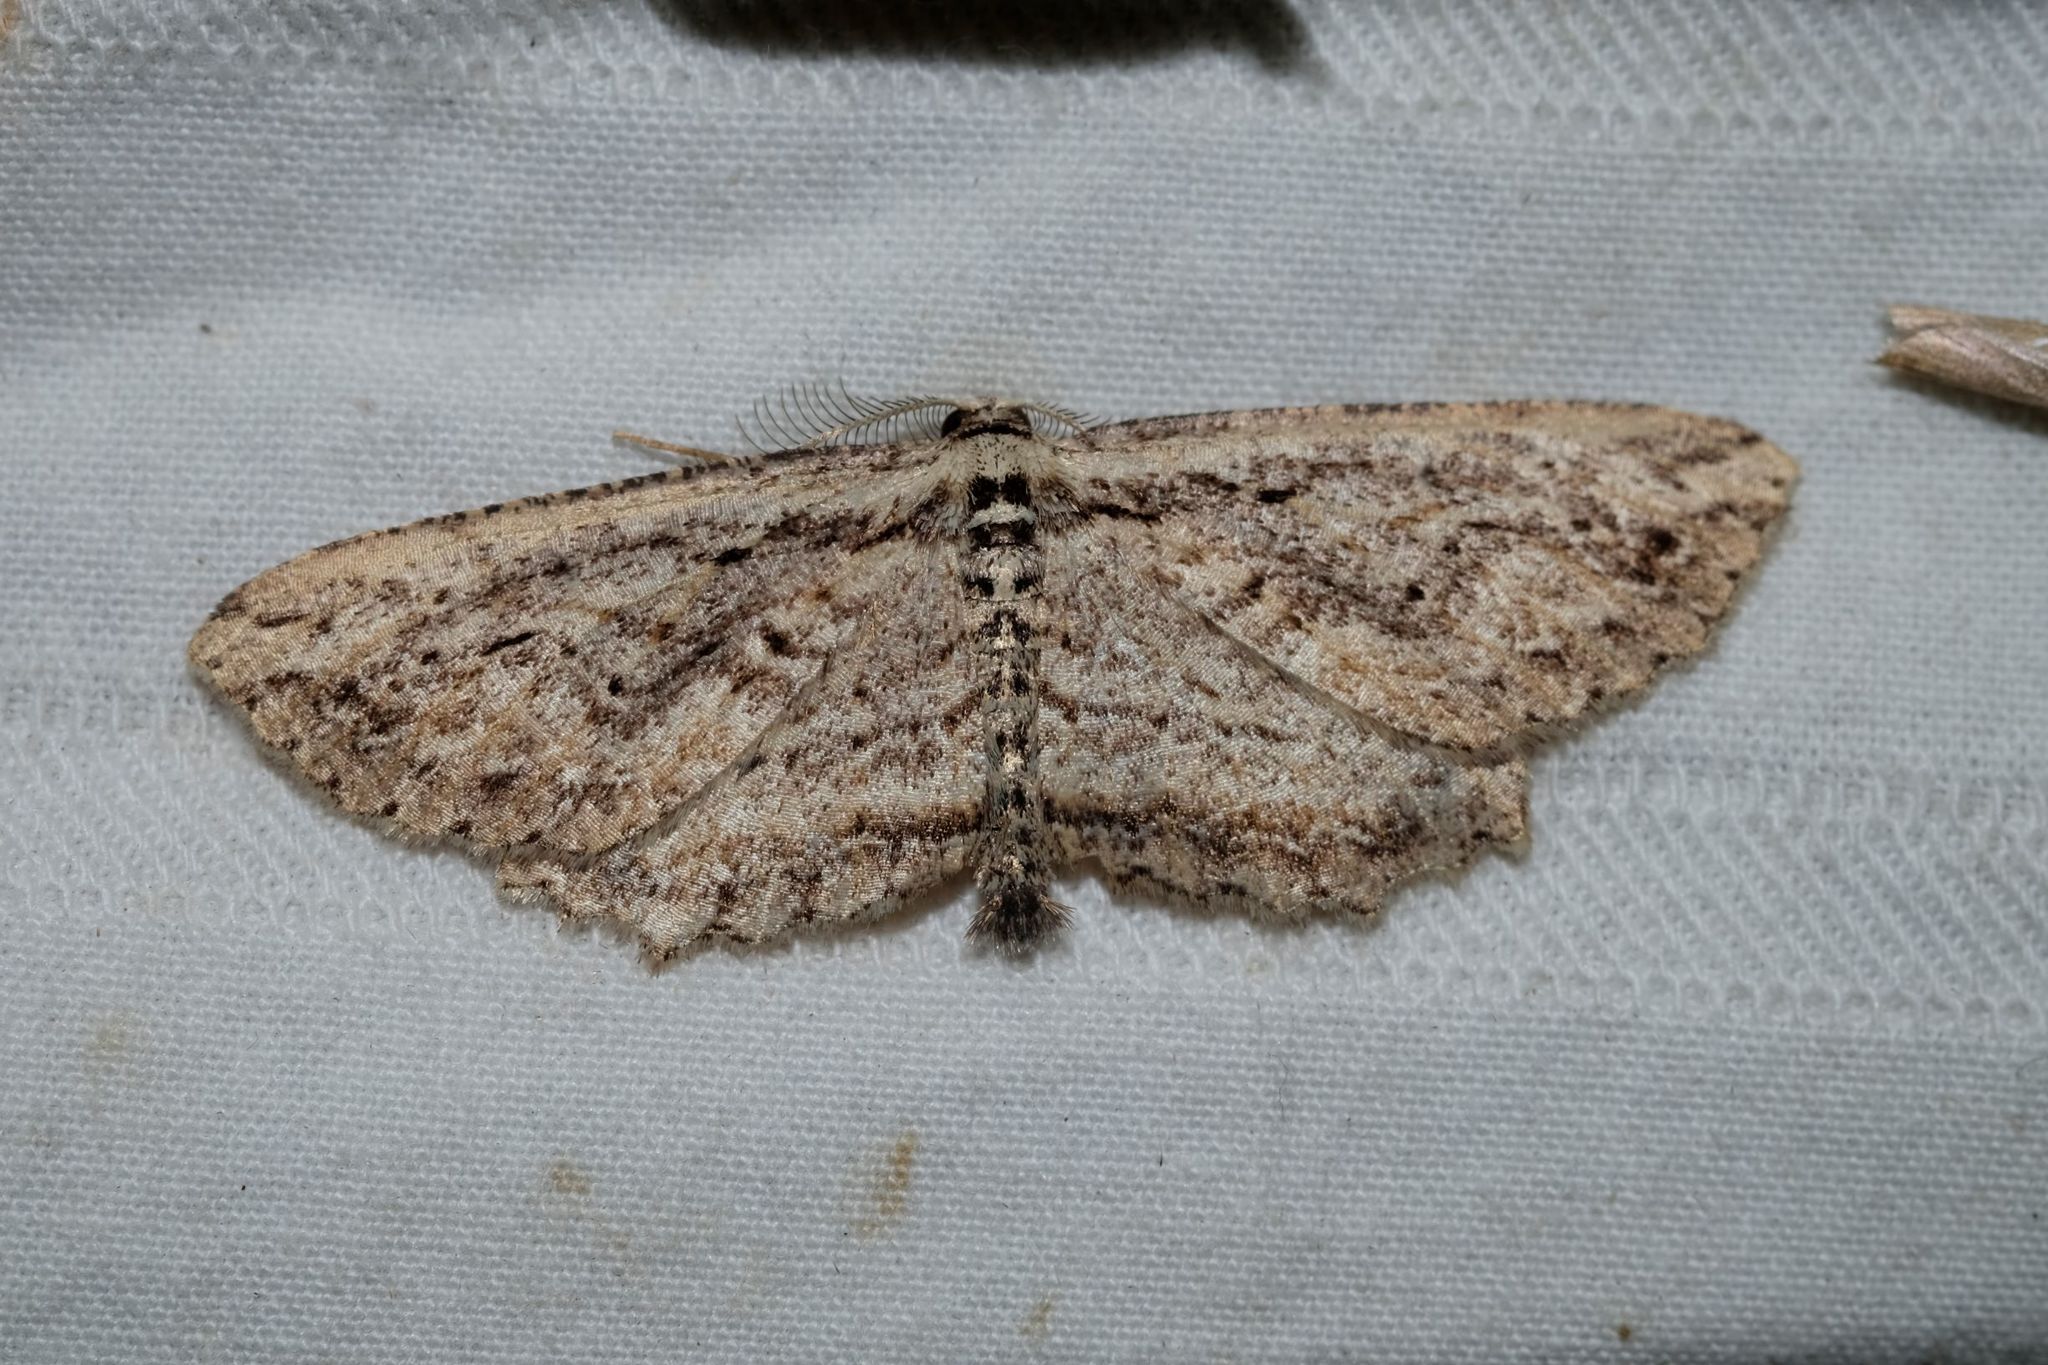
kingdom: Animalia
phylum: Arthropoda
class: Insecta
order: Lepidoptera
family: Geometridae
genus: Cleora
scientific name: Cleora nesiotis
